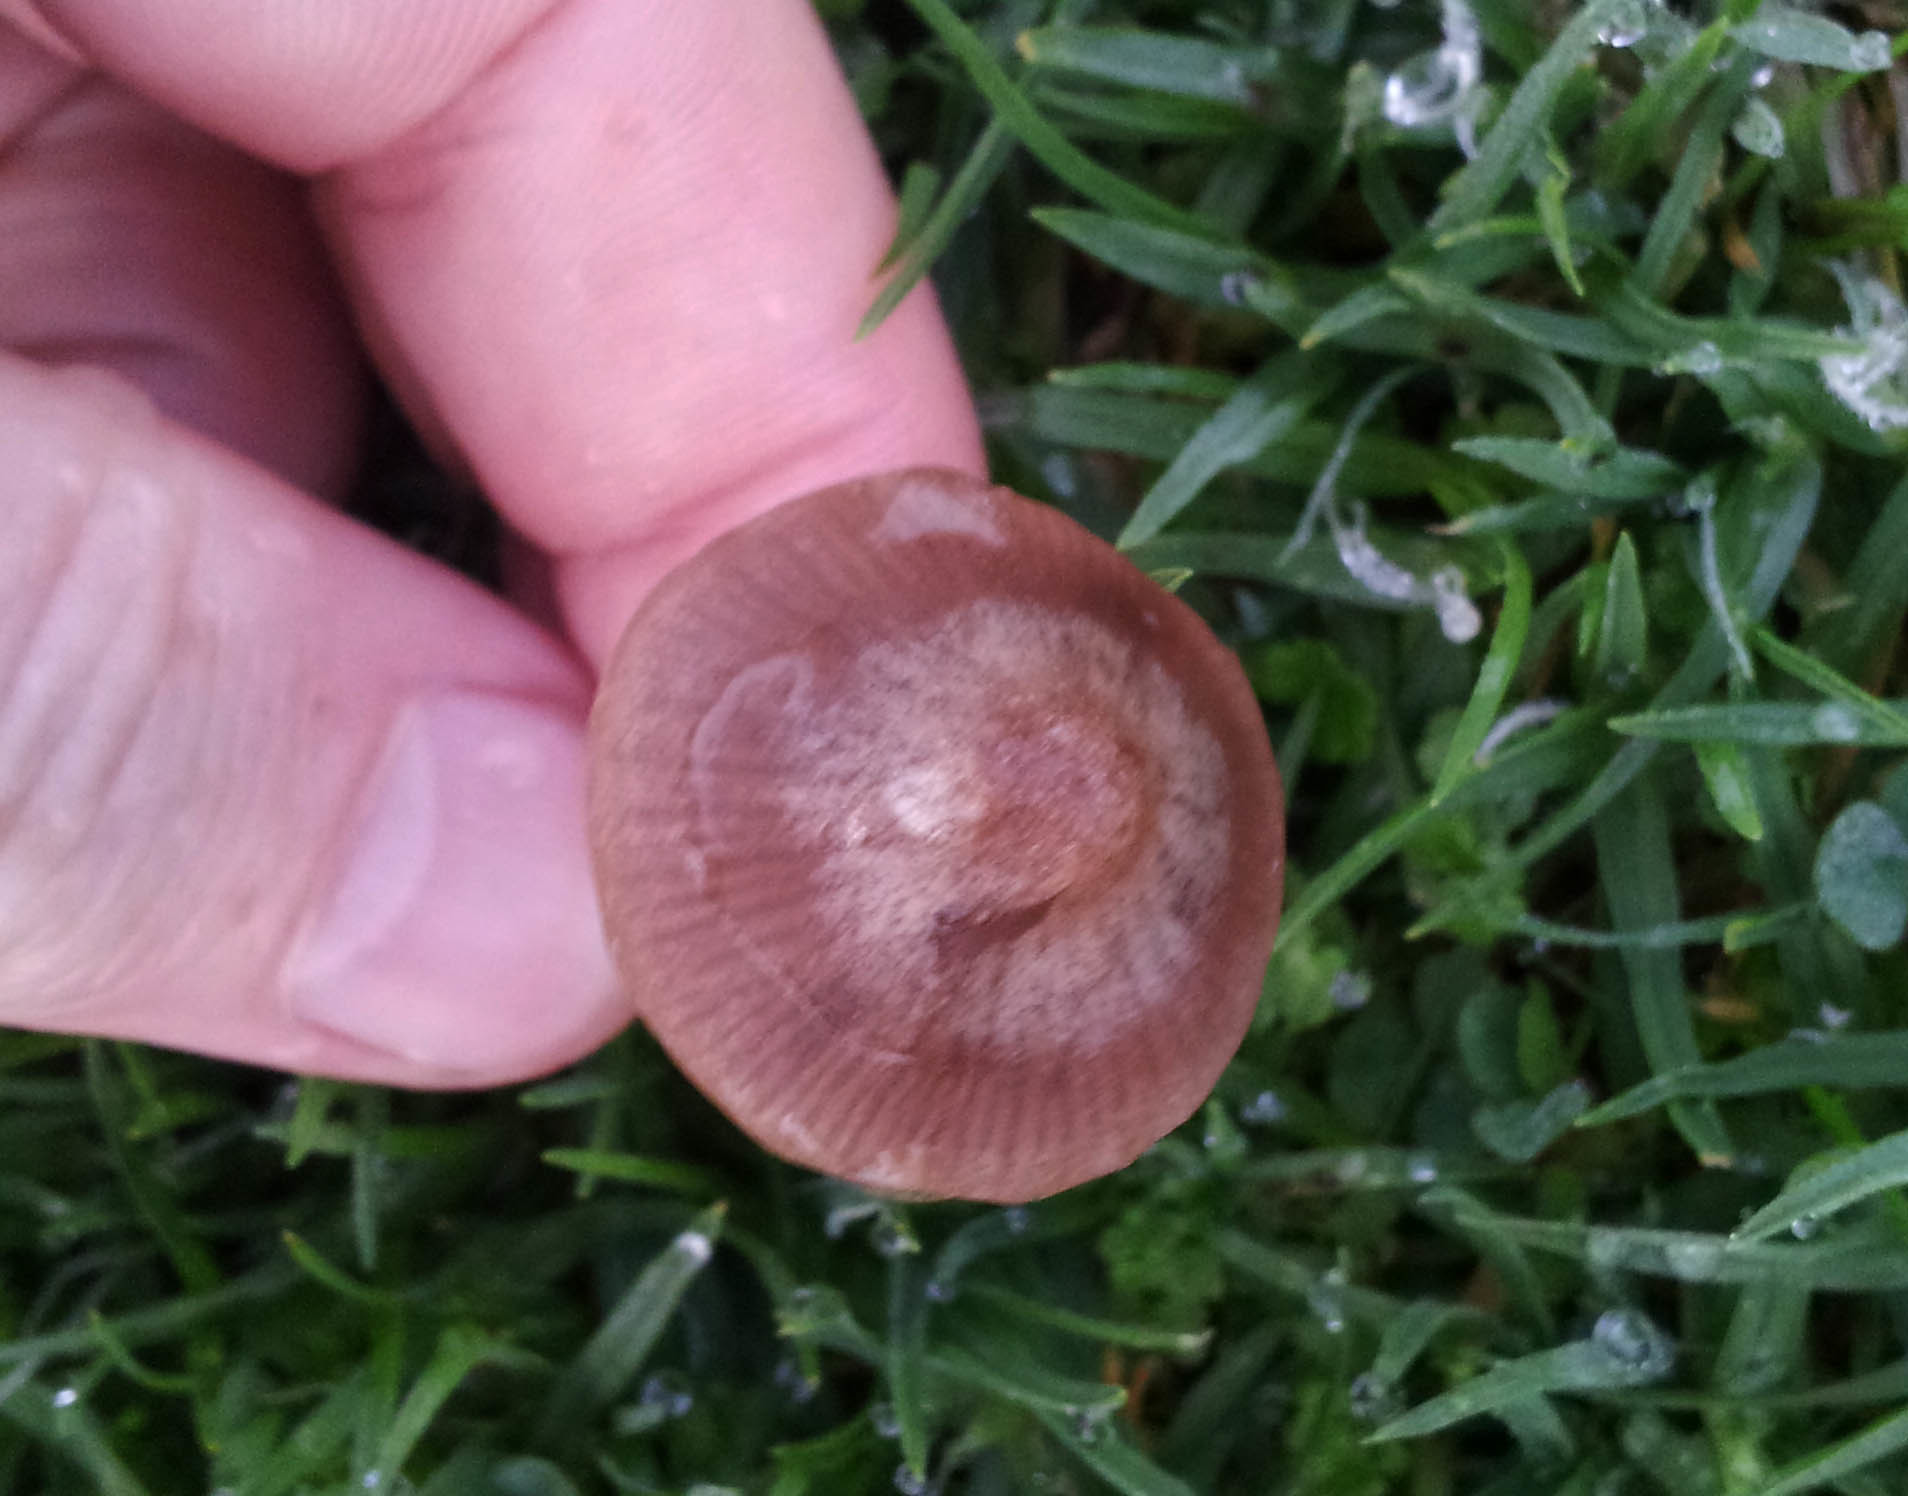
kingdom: Fungi
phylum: Basidiomycota
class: Agaricomycetes
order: Agaricales
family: Bolbitiaceae
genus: Panaeolina
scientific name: Panaeolina foenisecii
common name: Brown hay cap
